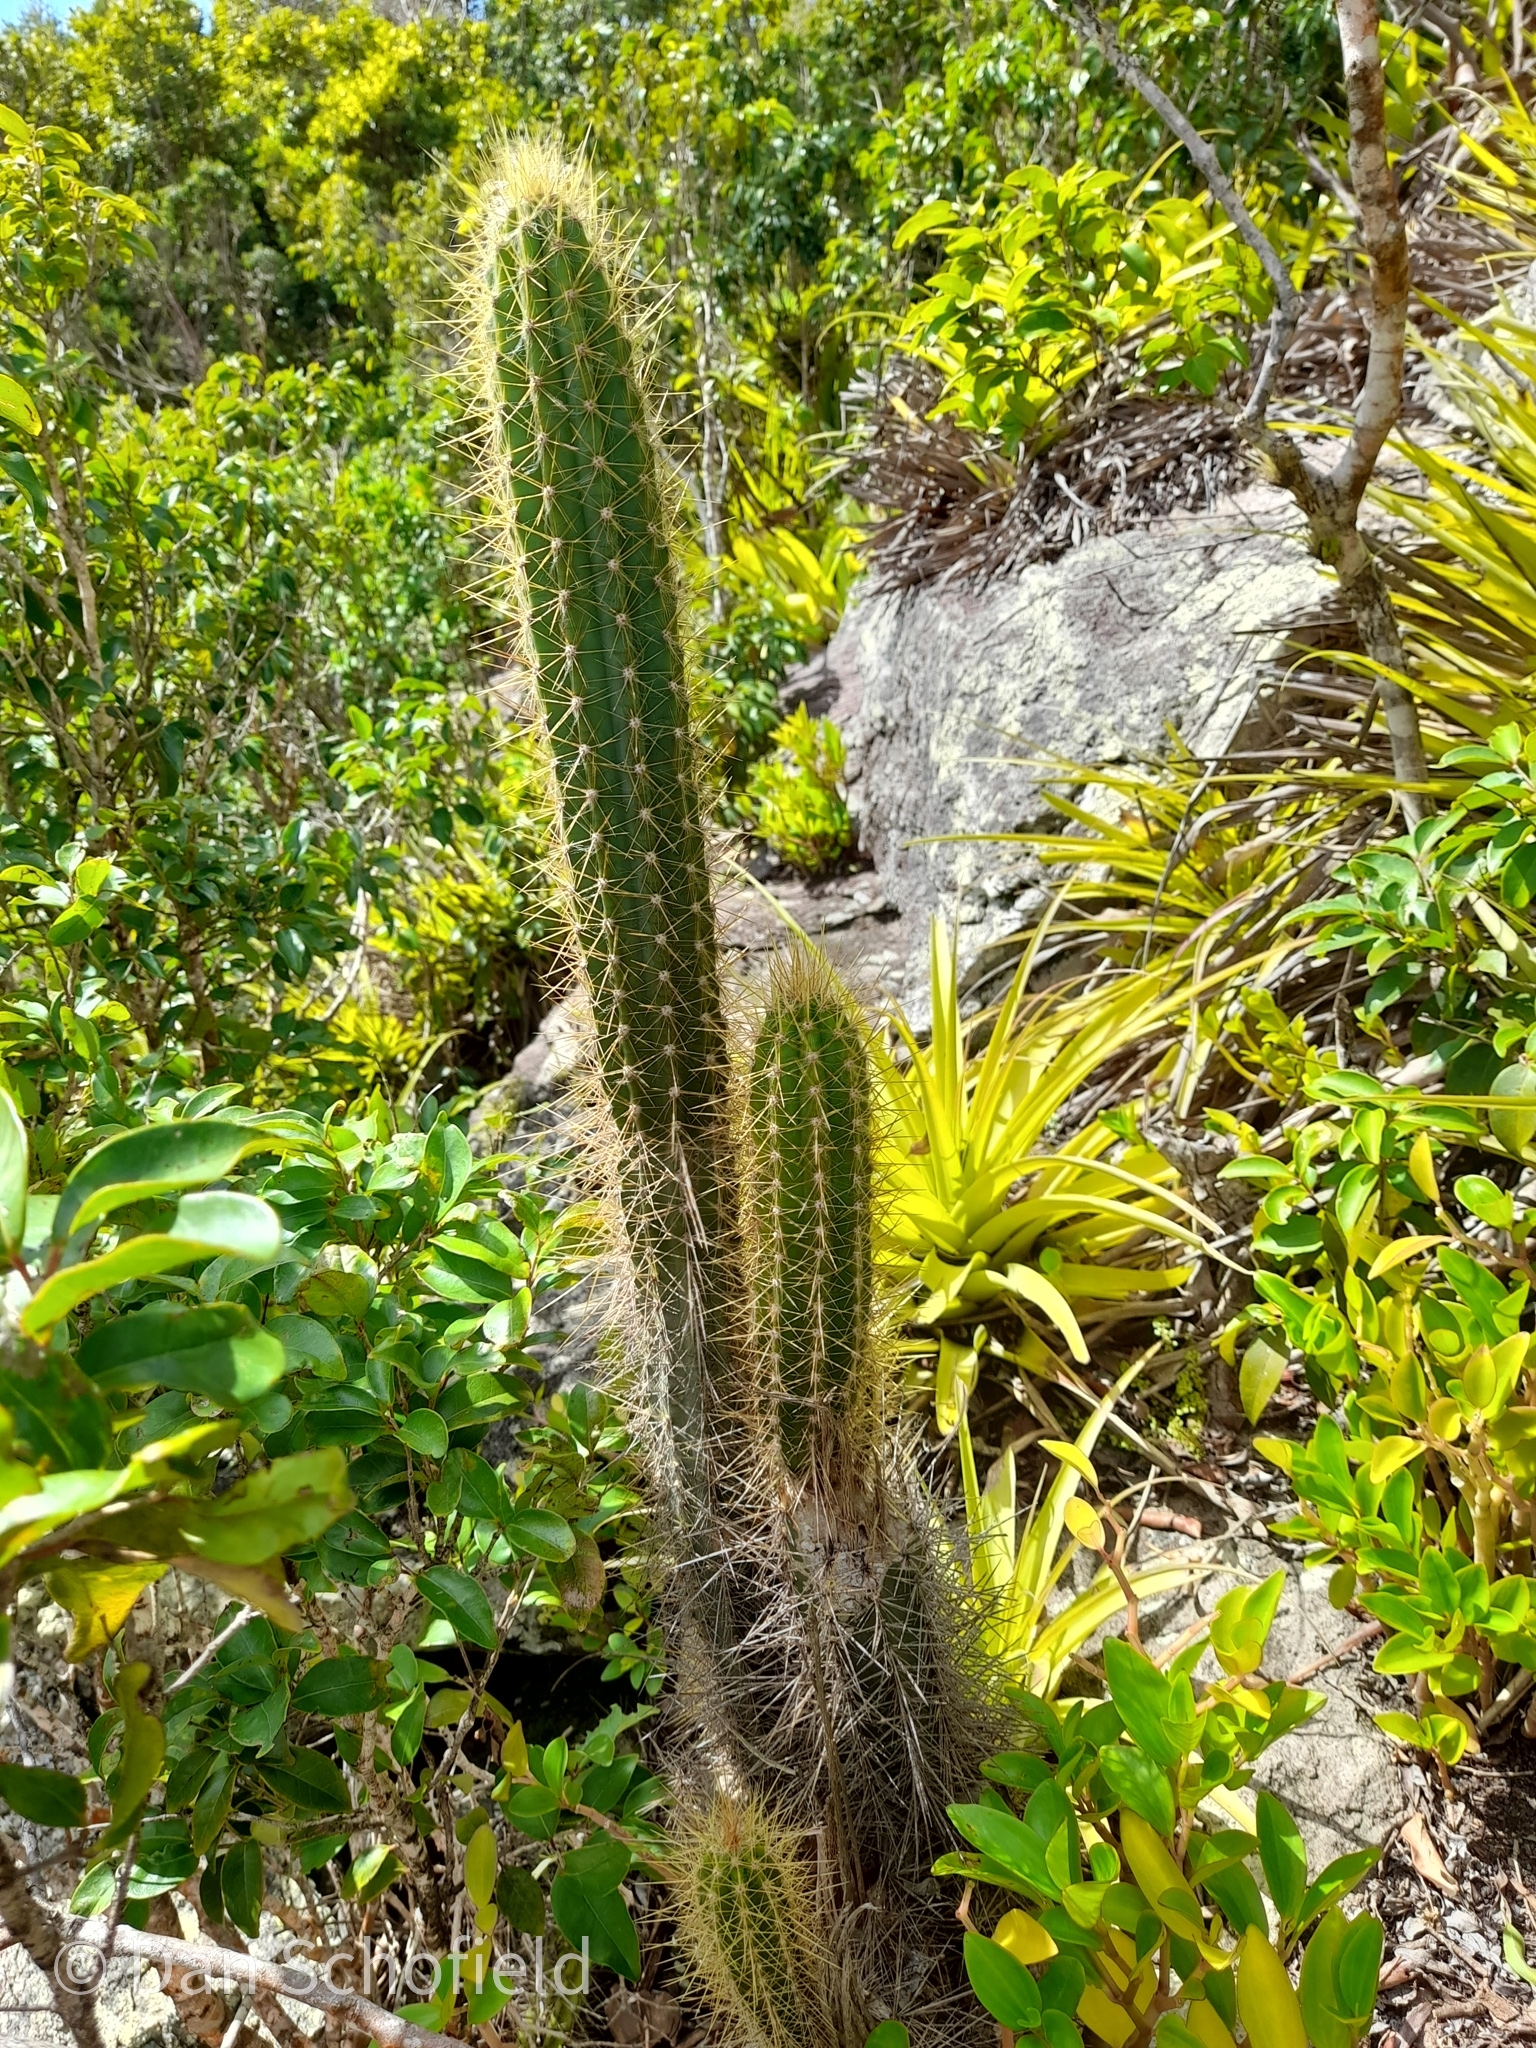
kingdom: Plantae
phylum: Tracheophyta
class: Magnoliopsida
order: Caryophyllales
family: Cactaceae
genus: Pilosocereus
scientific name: Pilosocereus curtisii
